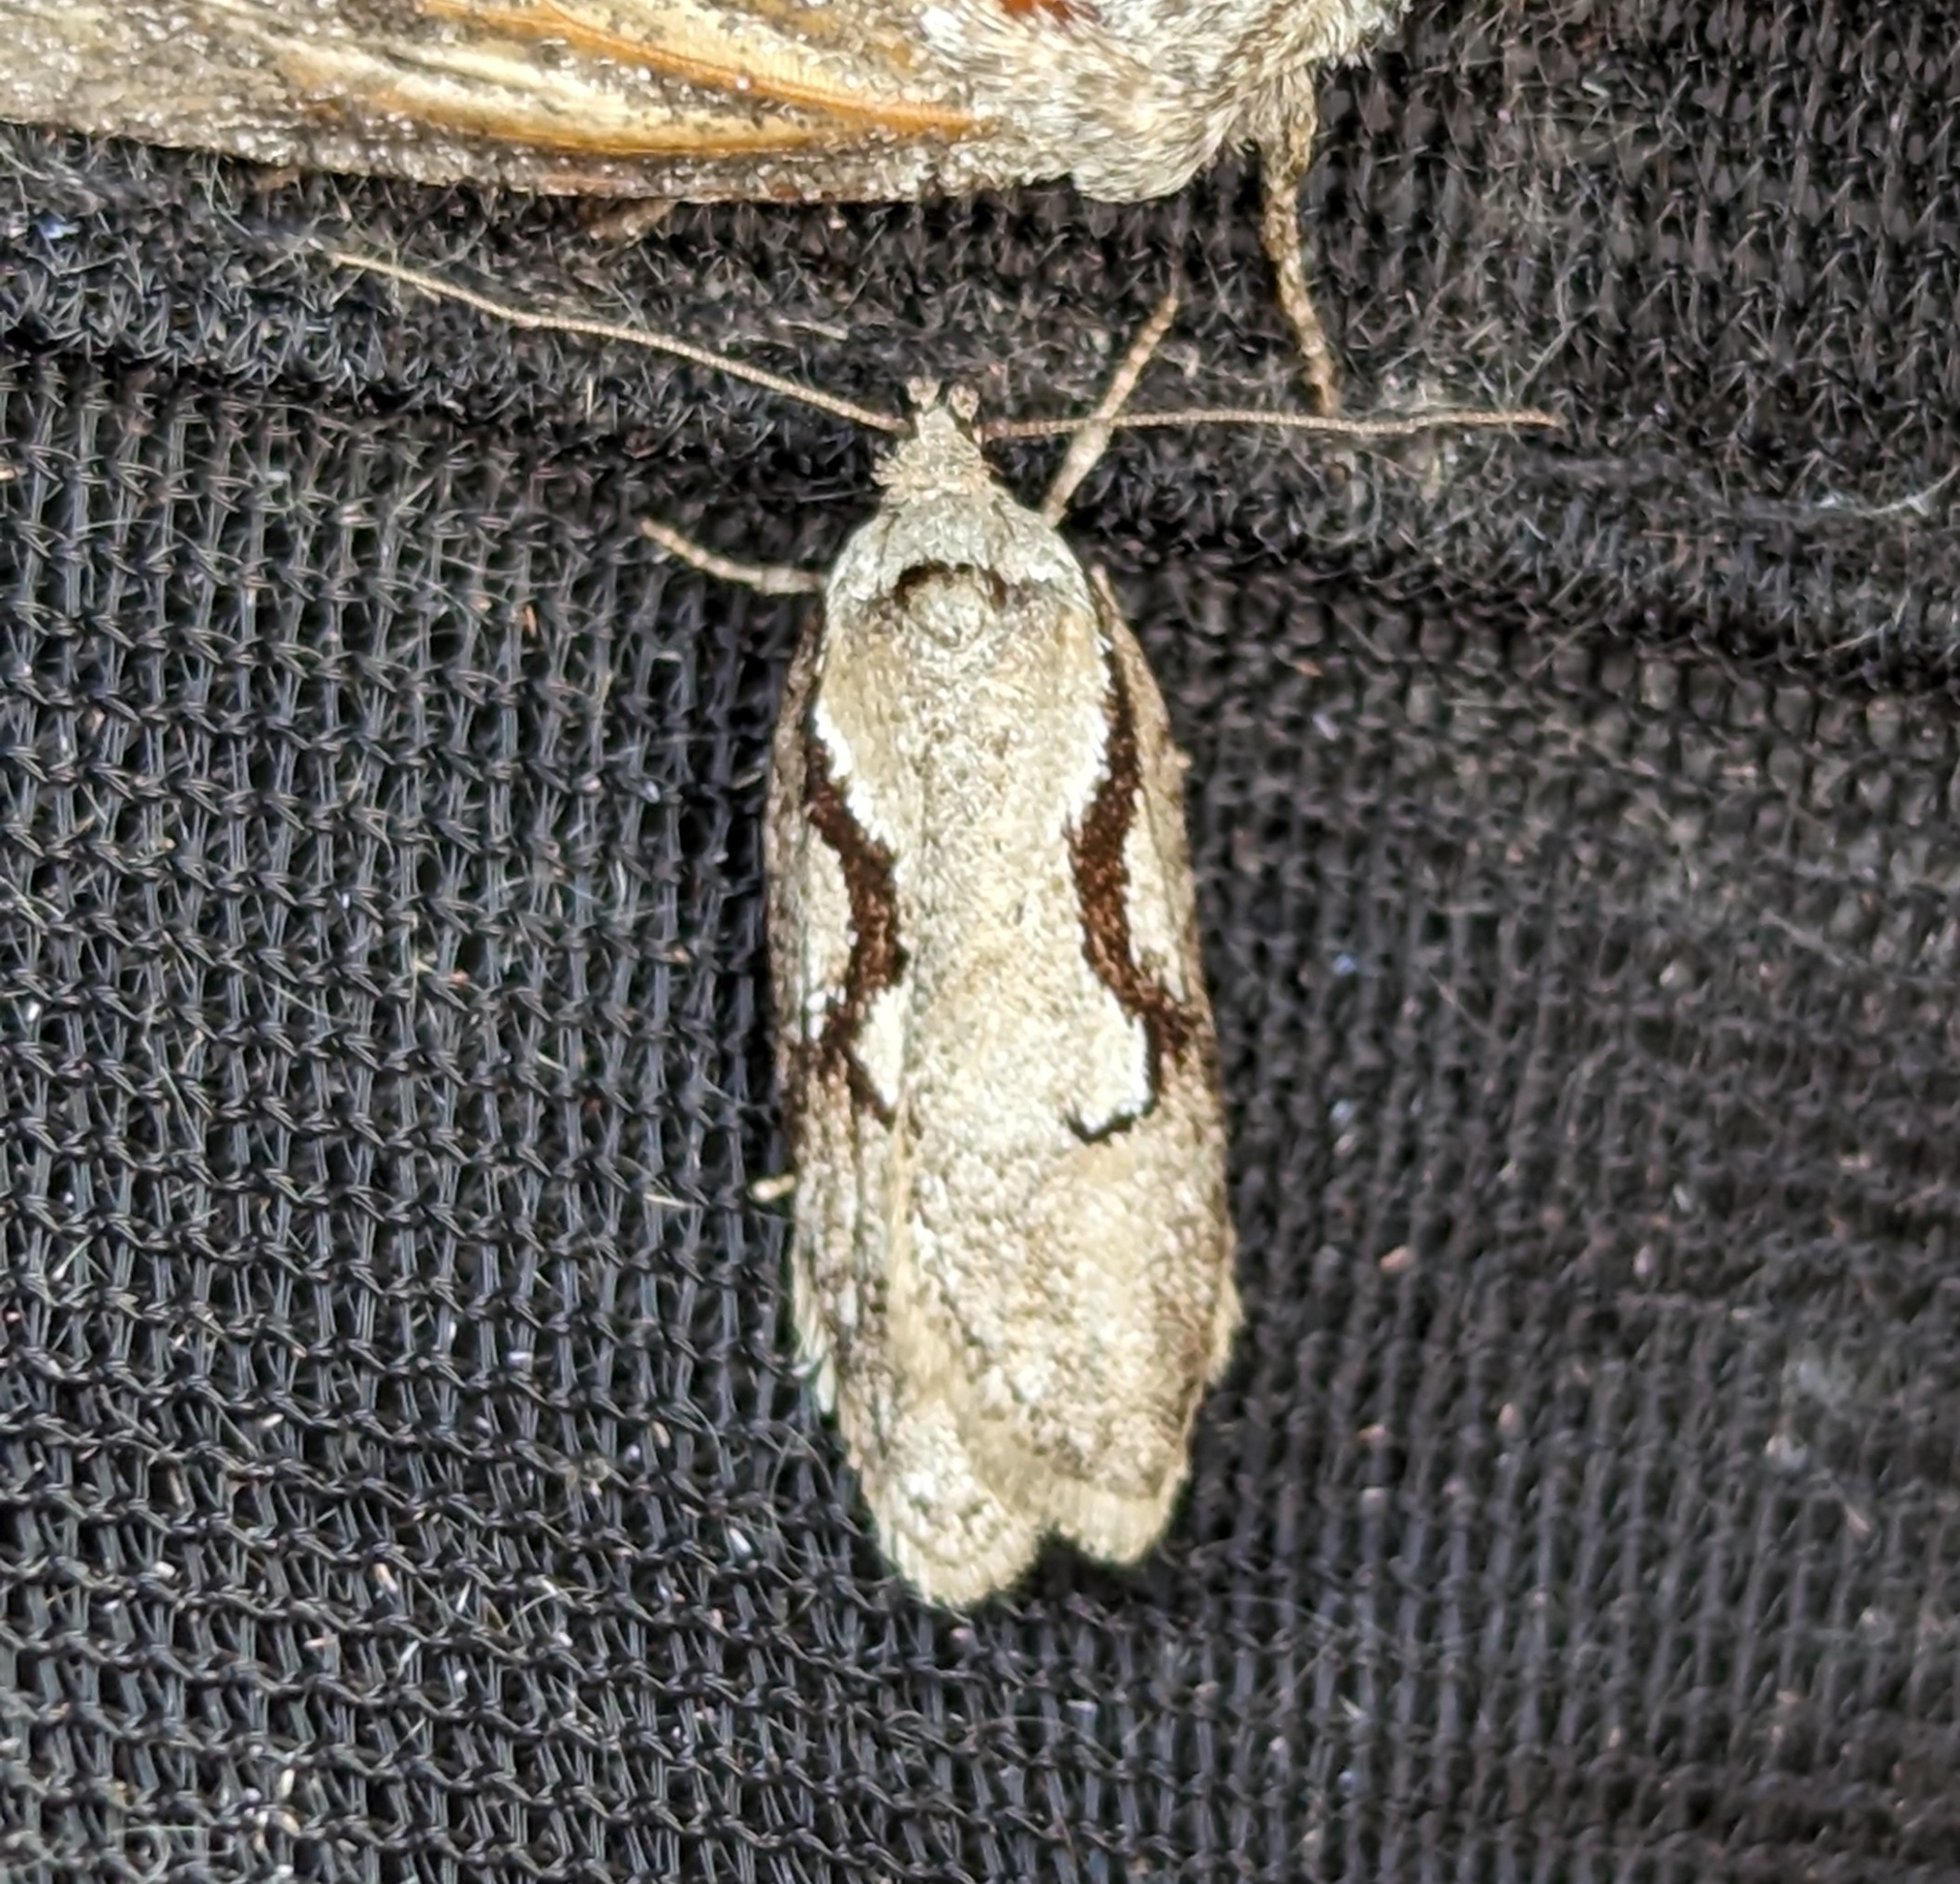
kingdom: Animalia
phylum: Arthropoda
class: Insecta
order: Lepidoptera
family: Depressariidae
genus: Semioscopis
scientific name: Semioscopis packardella
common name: Packard's concealer moth
